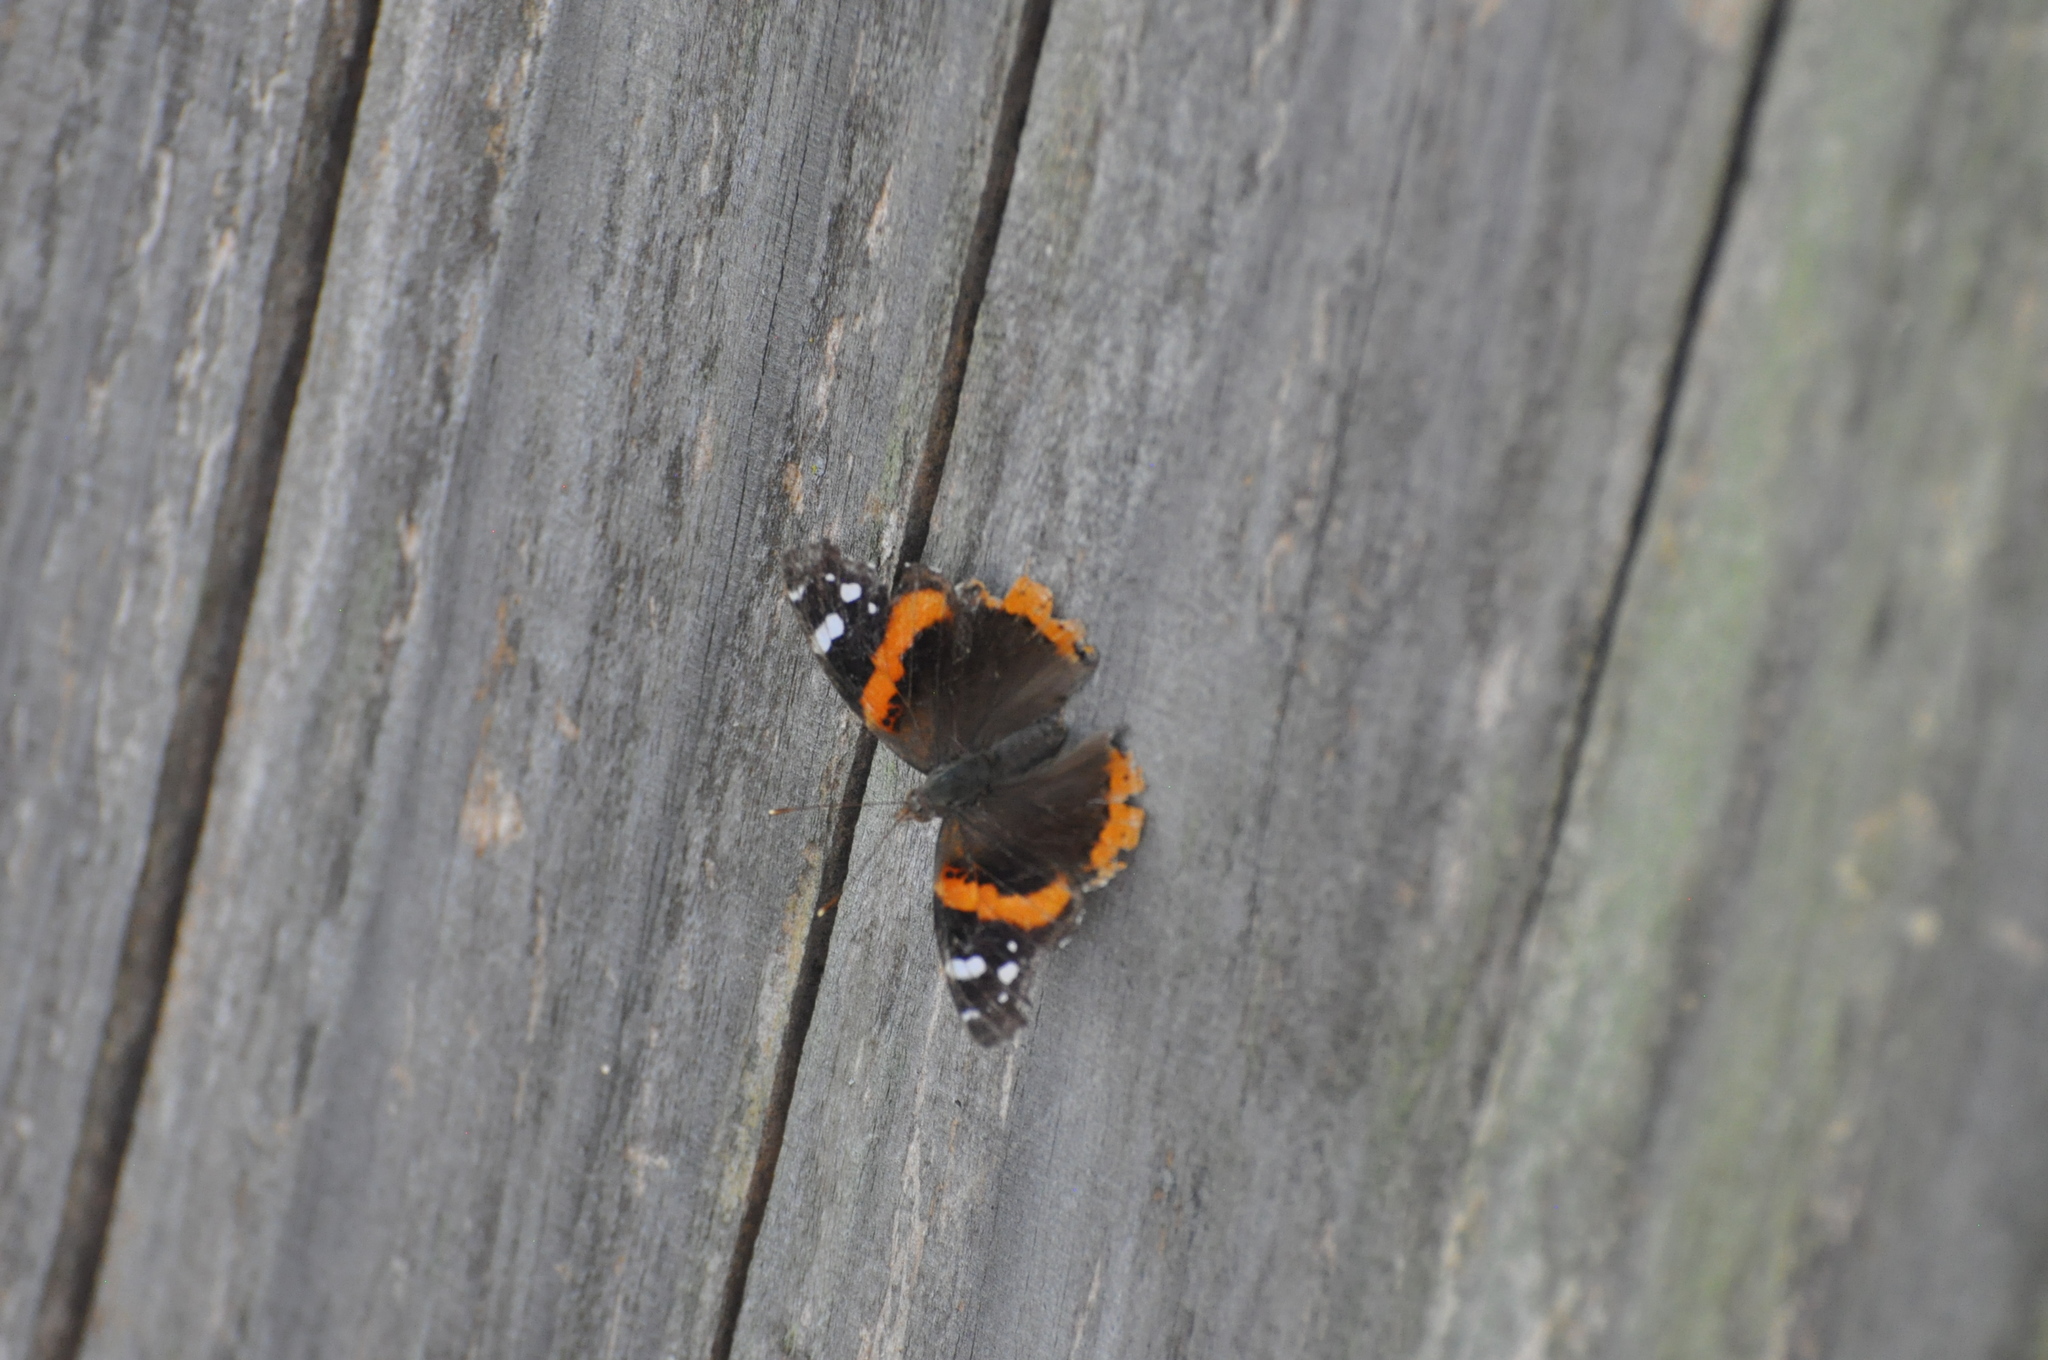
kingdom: Animalia
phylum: Arthropoda
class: Insecta
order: Lepidoptera
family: Nymphalidae
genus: Vanessa
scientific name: Vanessa atalanta
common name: Red admiral
